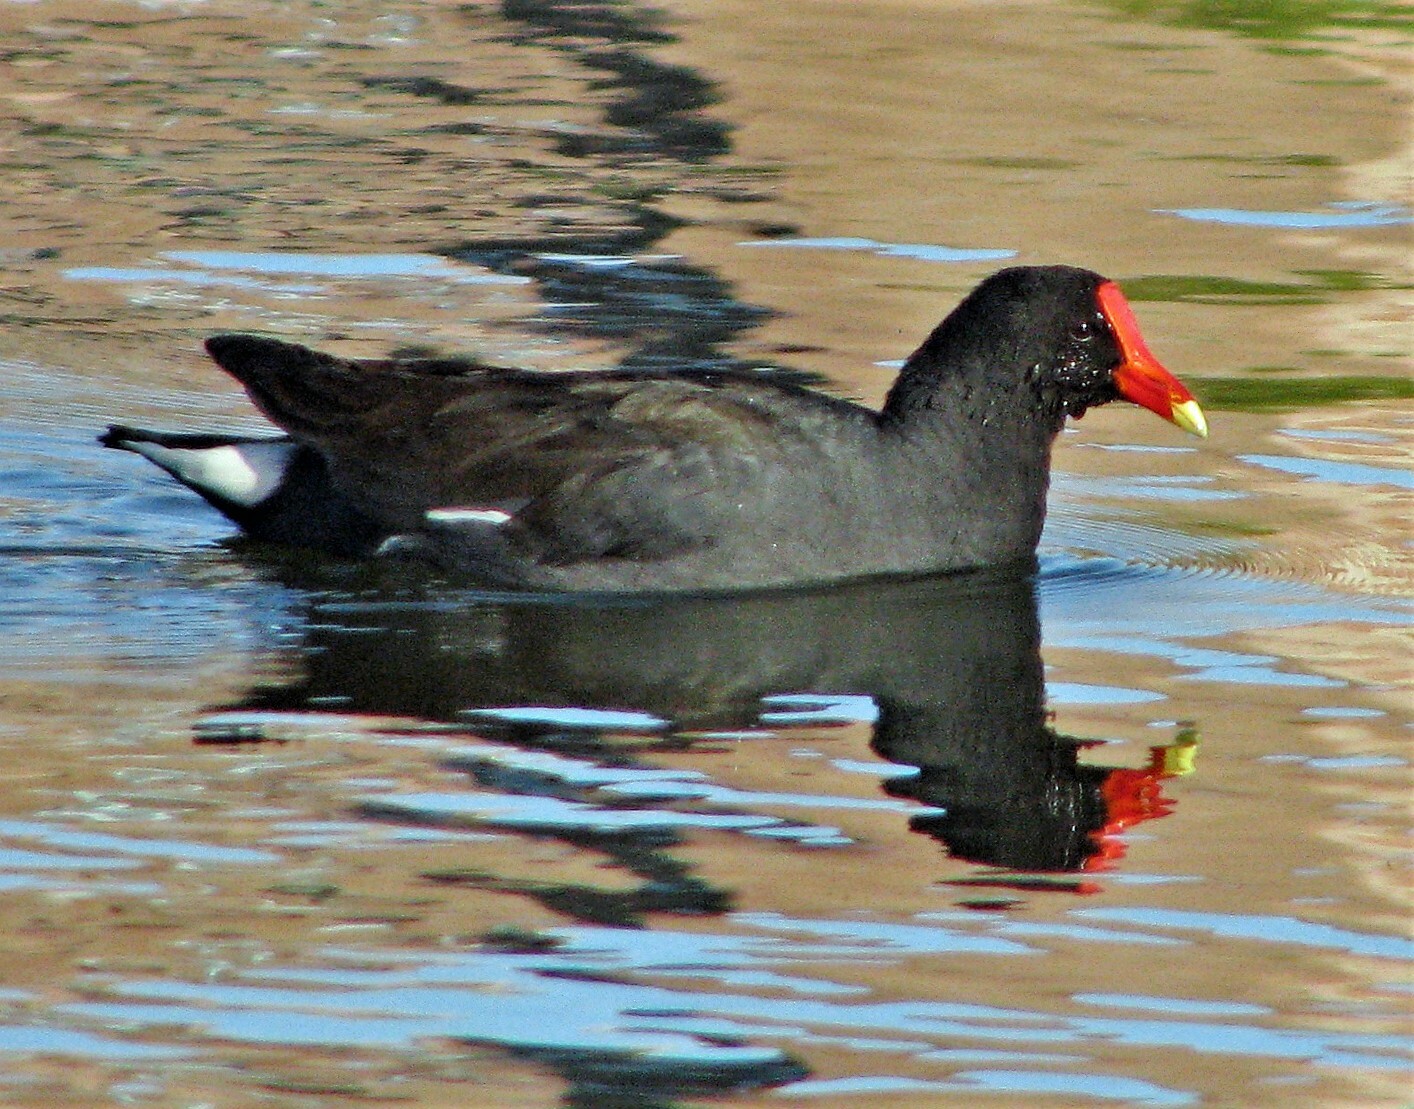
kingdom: Animalia
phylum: Chordata
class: Aves
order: Gruiformes
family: Rallidae
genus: Gallinula
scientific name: Gallinula chloropus
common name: Common moorhen
